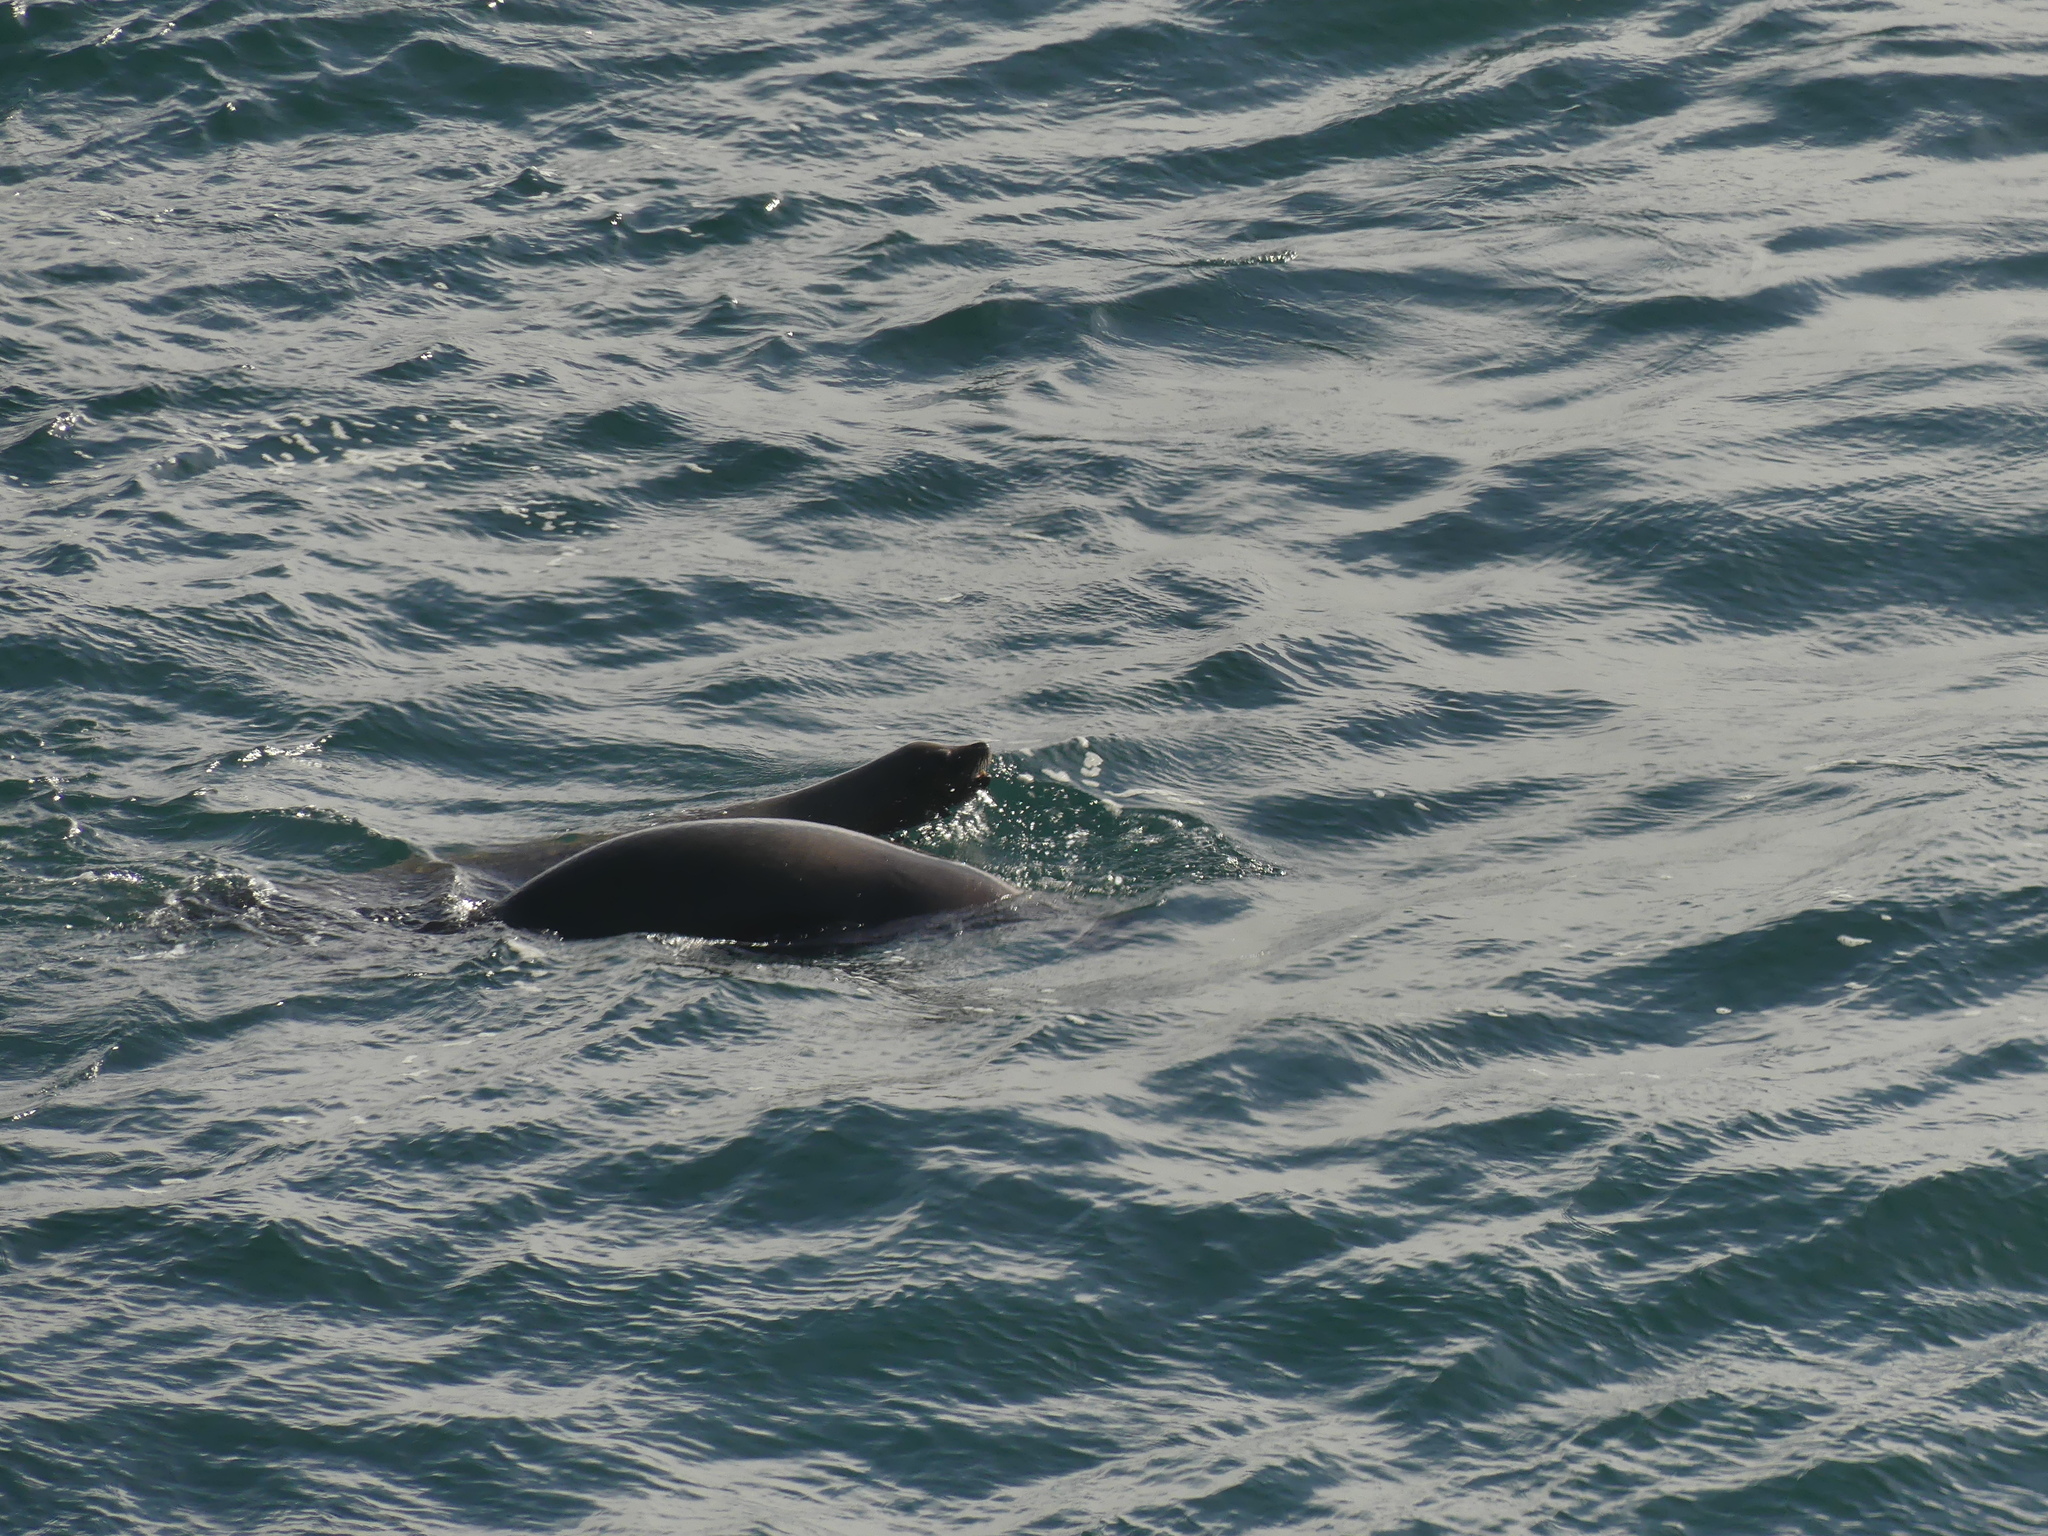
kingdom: Animalia
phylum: Chordata
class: Mammalia
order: Carnivora
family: Otariidae
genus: Zalophus
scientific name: Zalophus californianus
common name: California sea lion
